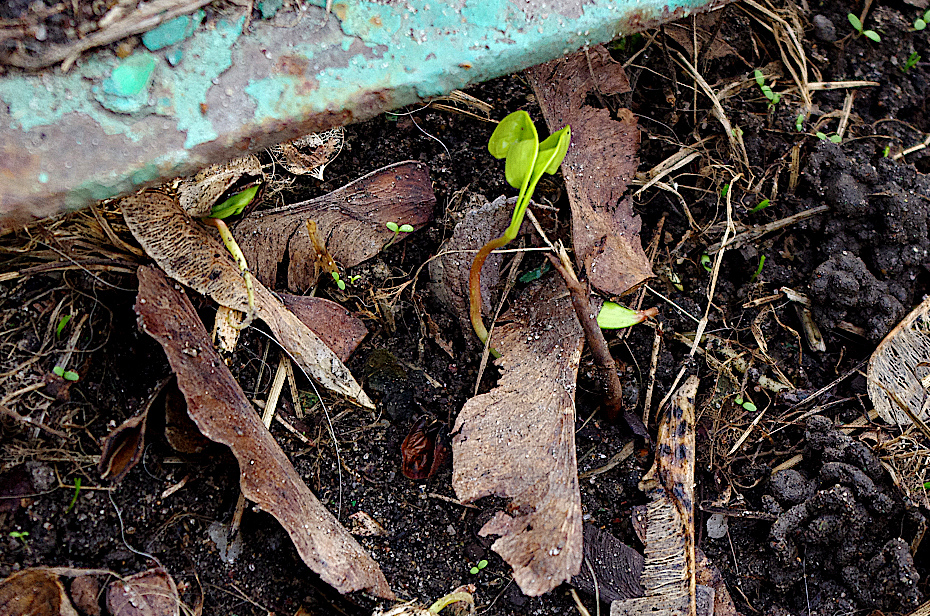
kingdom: Plantae
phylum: Tracheophyta
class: Magnoliopsida
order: Sapindales
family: Sapindaceae
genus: Acer
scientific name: Acer platanoides
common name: Norway maple
